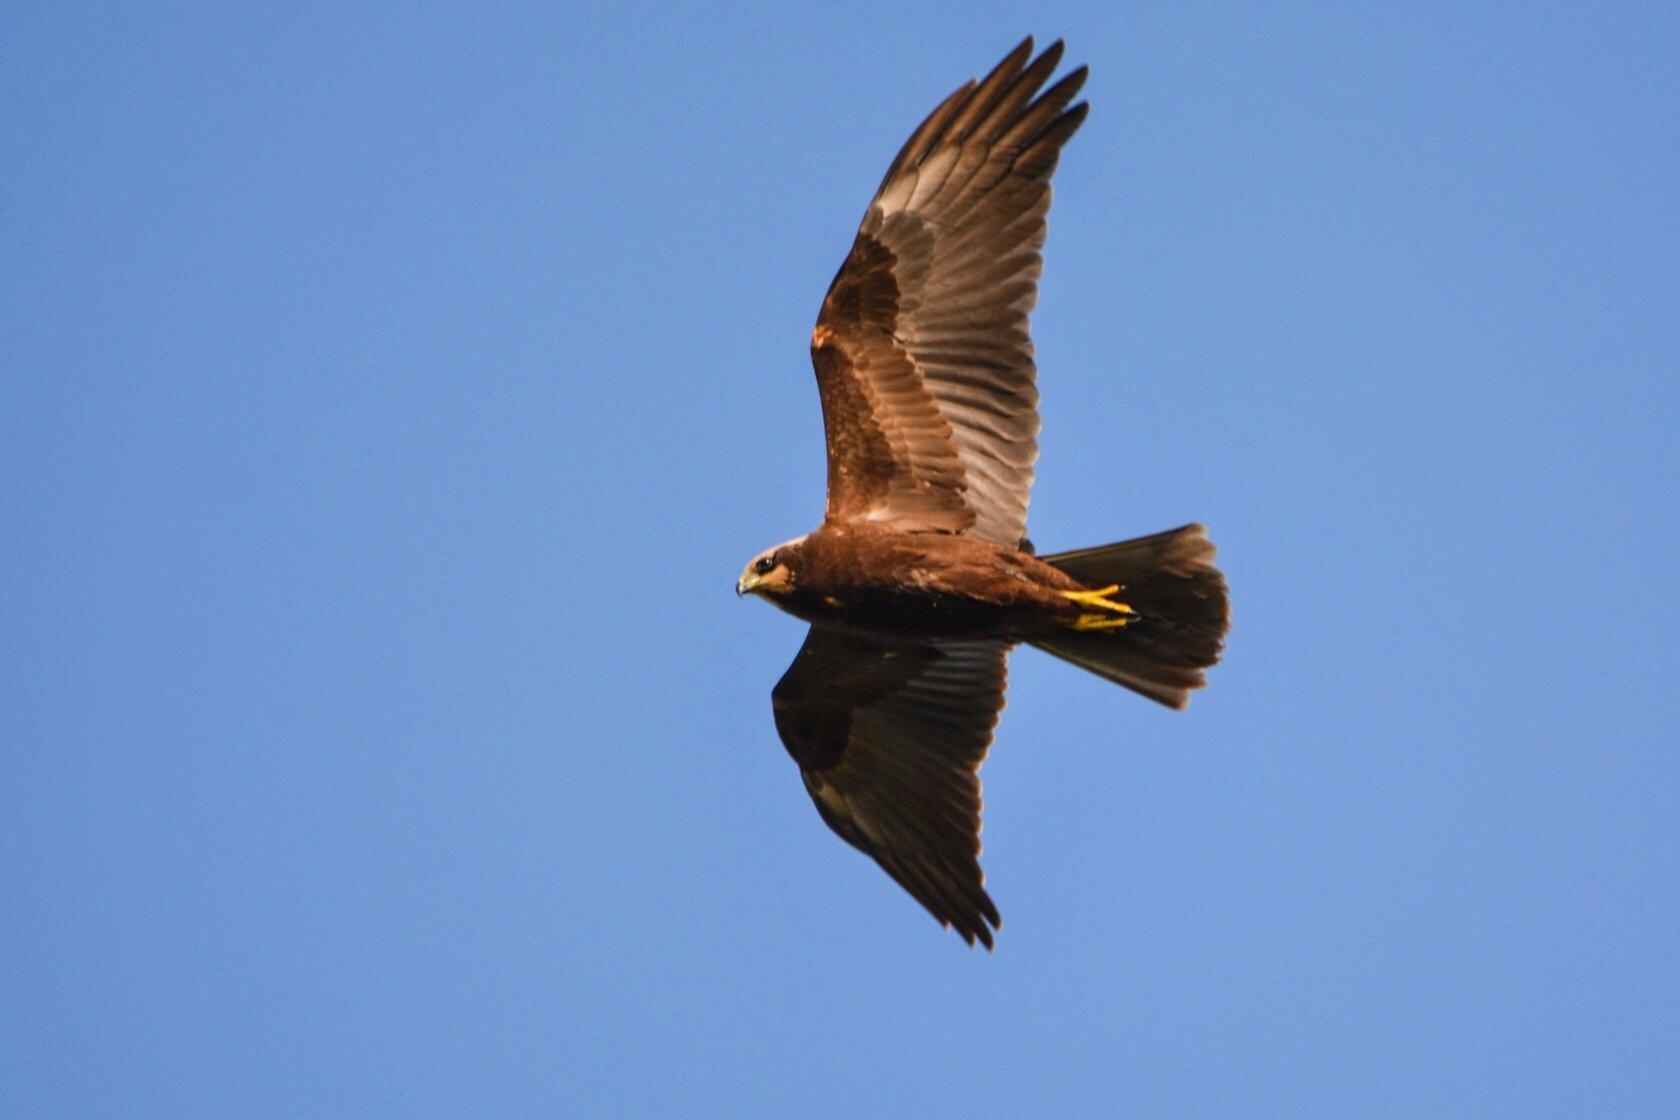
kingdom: Animalia
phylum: Chordata
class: Aves
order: Accipitriformes
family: Accipitridae
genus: Circus
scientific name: Circus aeruginosus
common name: Western marsh harrier
